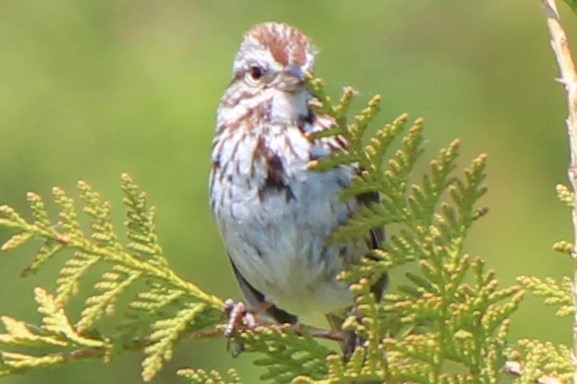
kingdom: Animalia
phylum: Chordata
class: Aves
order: Passeriformes
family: Passerellidae
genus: Melospiza
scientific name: Melospiza melodia
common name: Song sparrow
